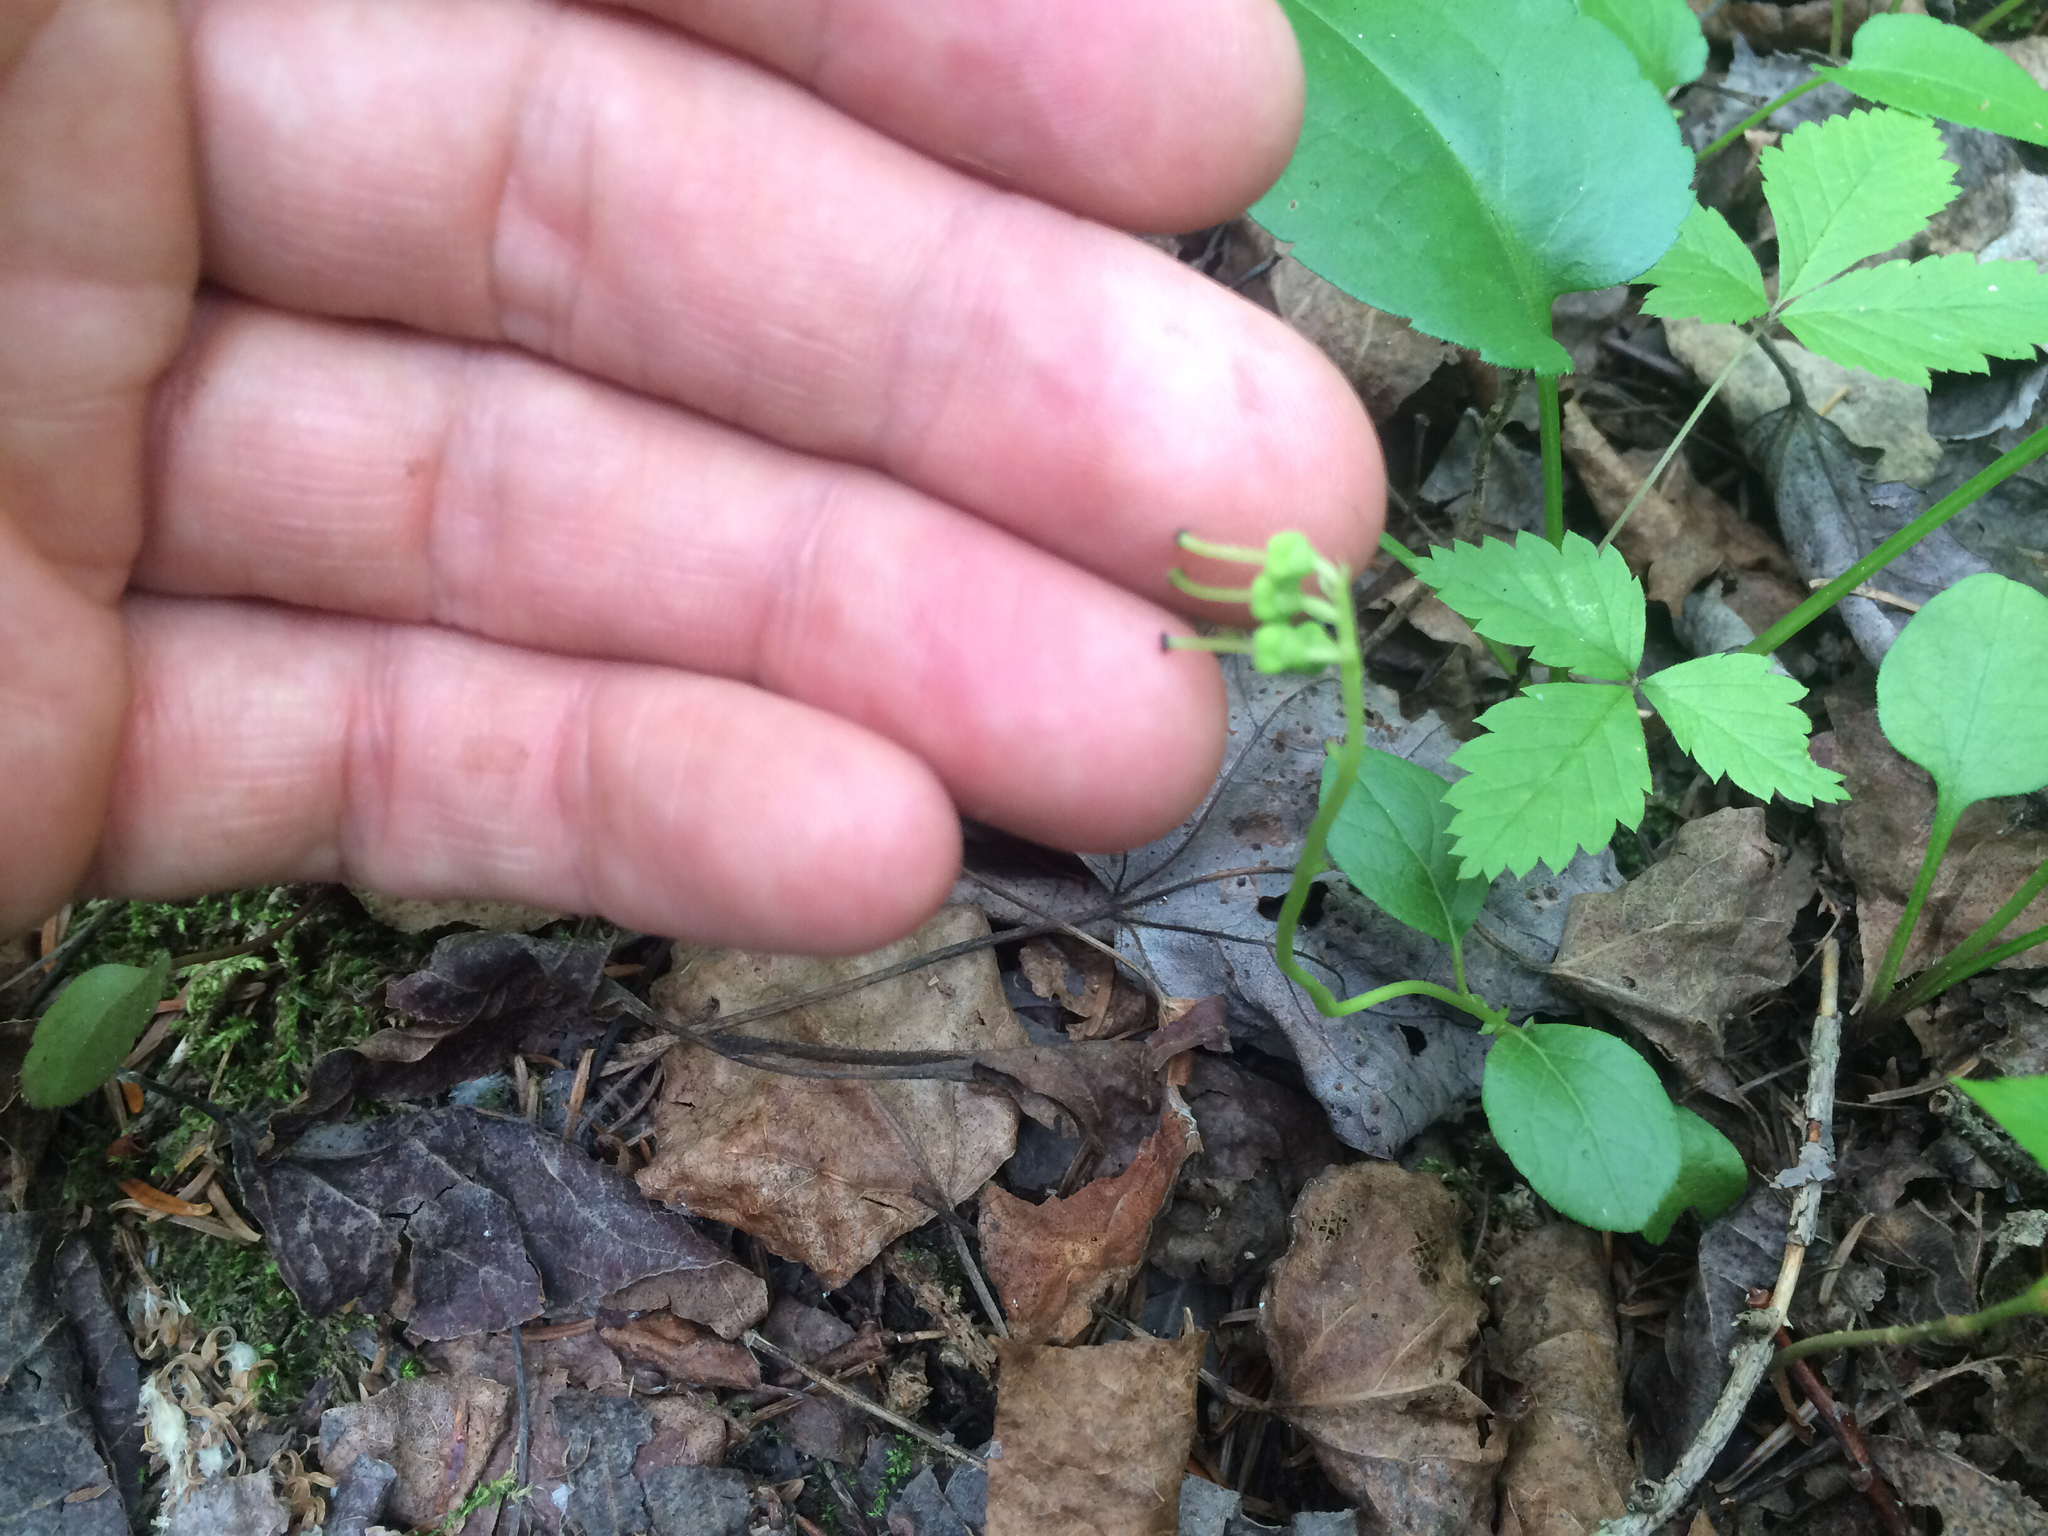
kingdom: Plantae
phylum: Tracheophyta
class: Magnoliopsida
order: Ericales
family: Ericaceae
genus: Orthilia
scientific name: Orthilia secunda
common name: One-sided orthilia
